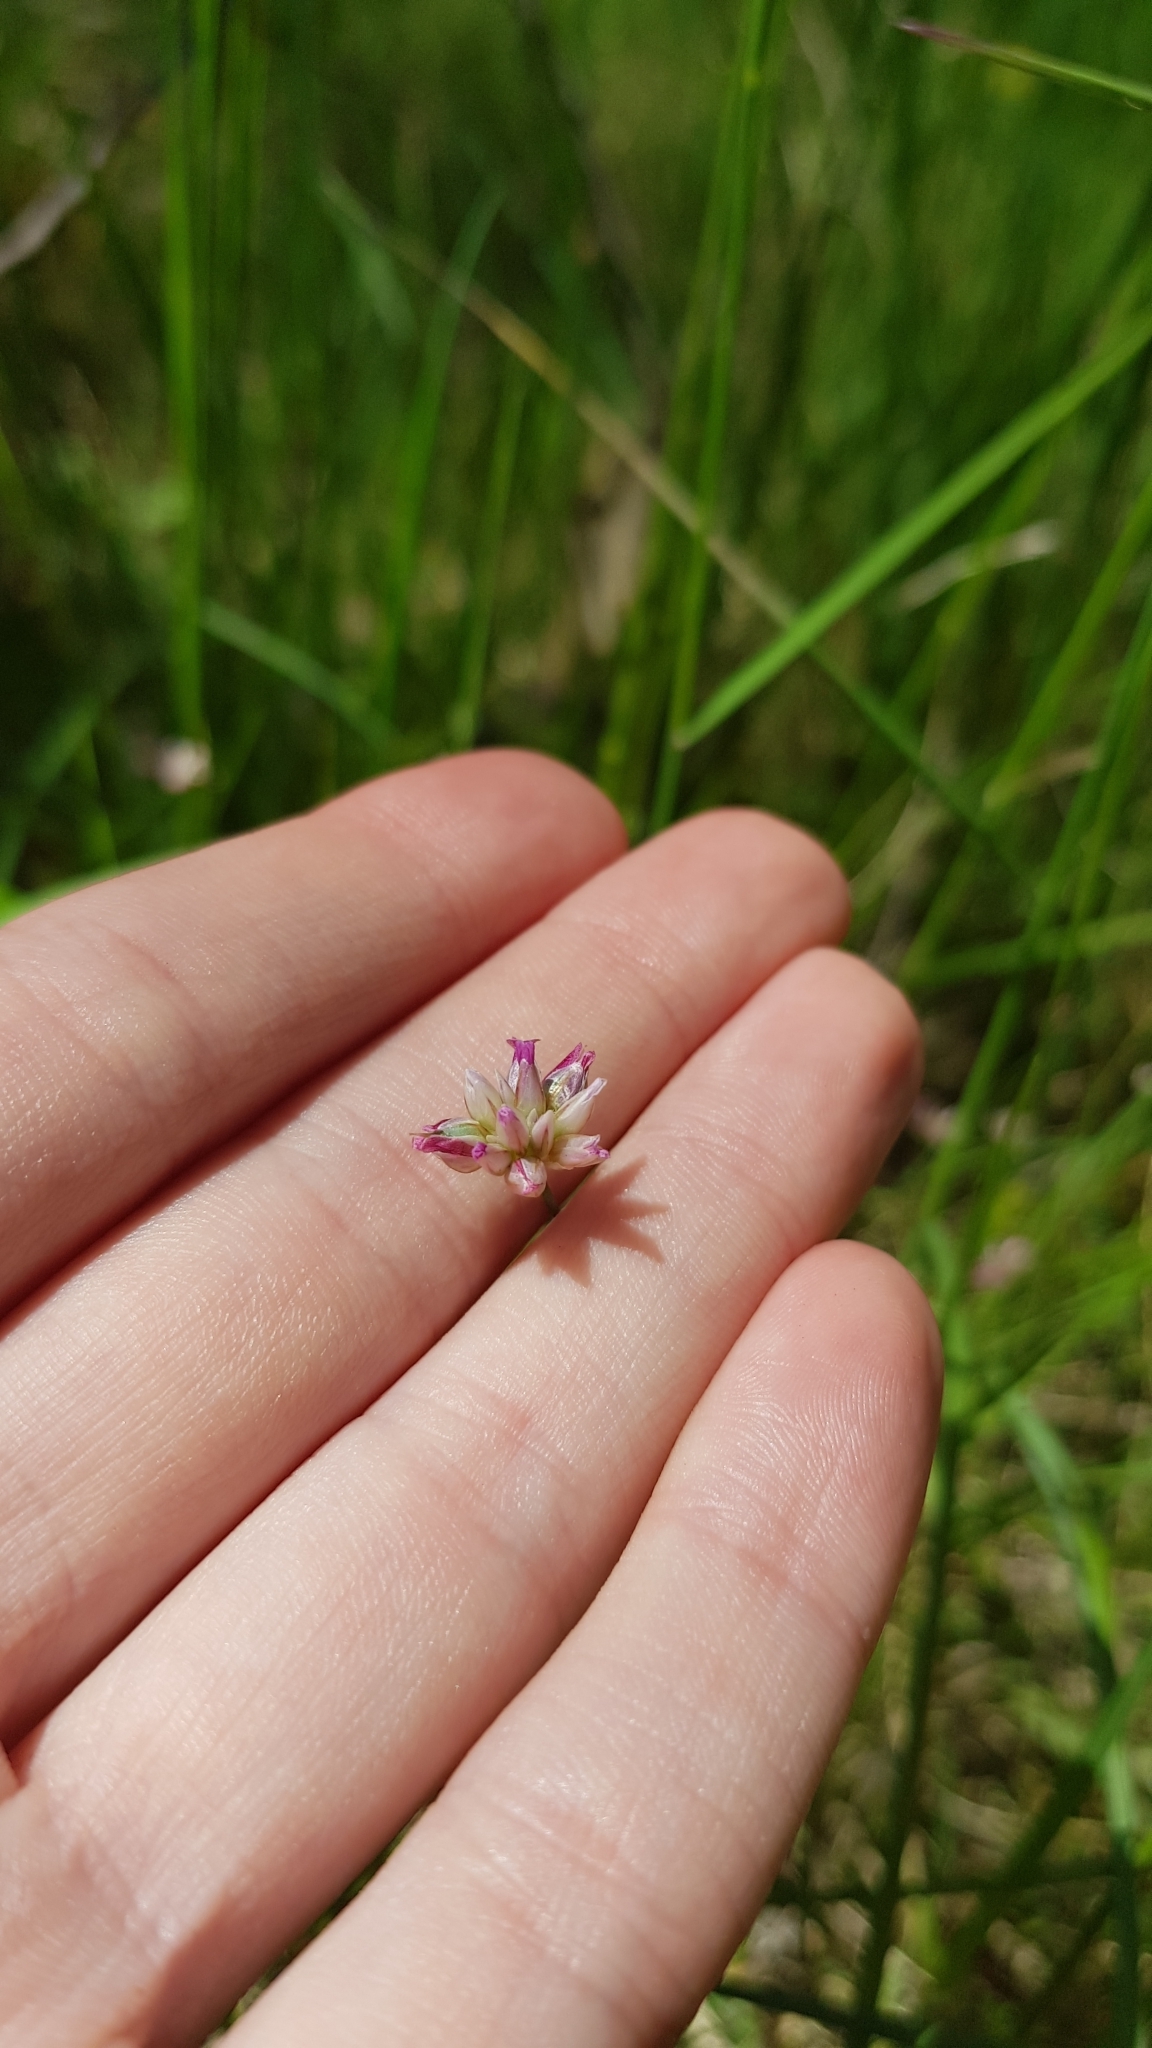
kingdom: Plantae
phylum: Tracheophyta
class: Liliopsida
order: Asparagales
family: Asparagaceae
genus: Laxmannia
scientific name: Laxmannia gracilis
